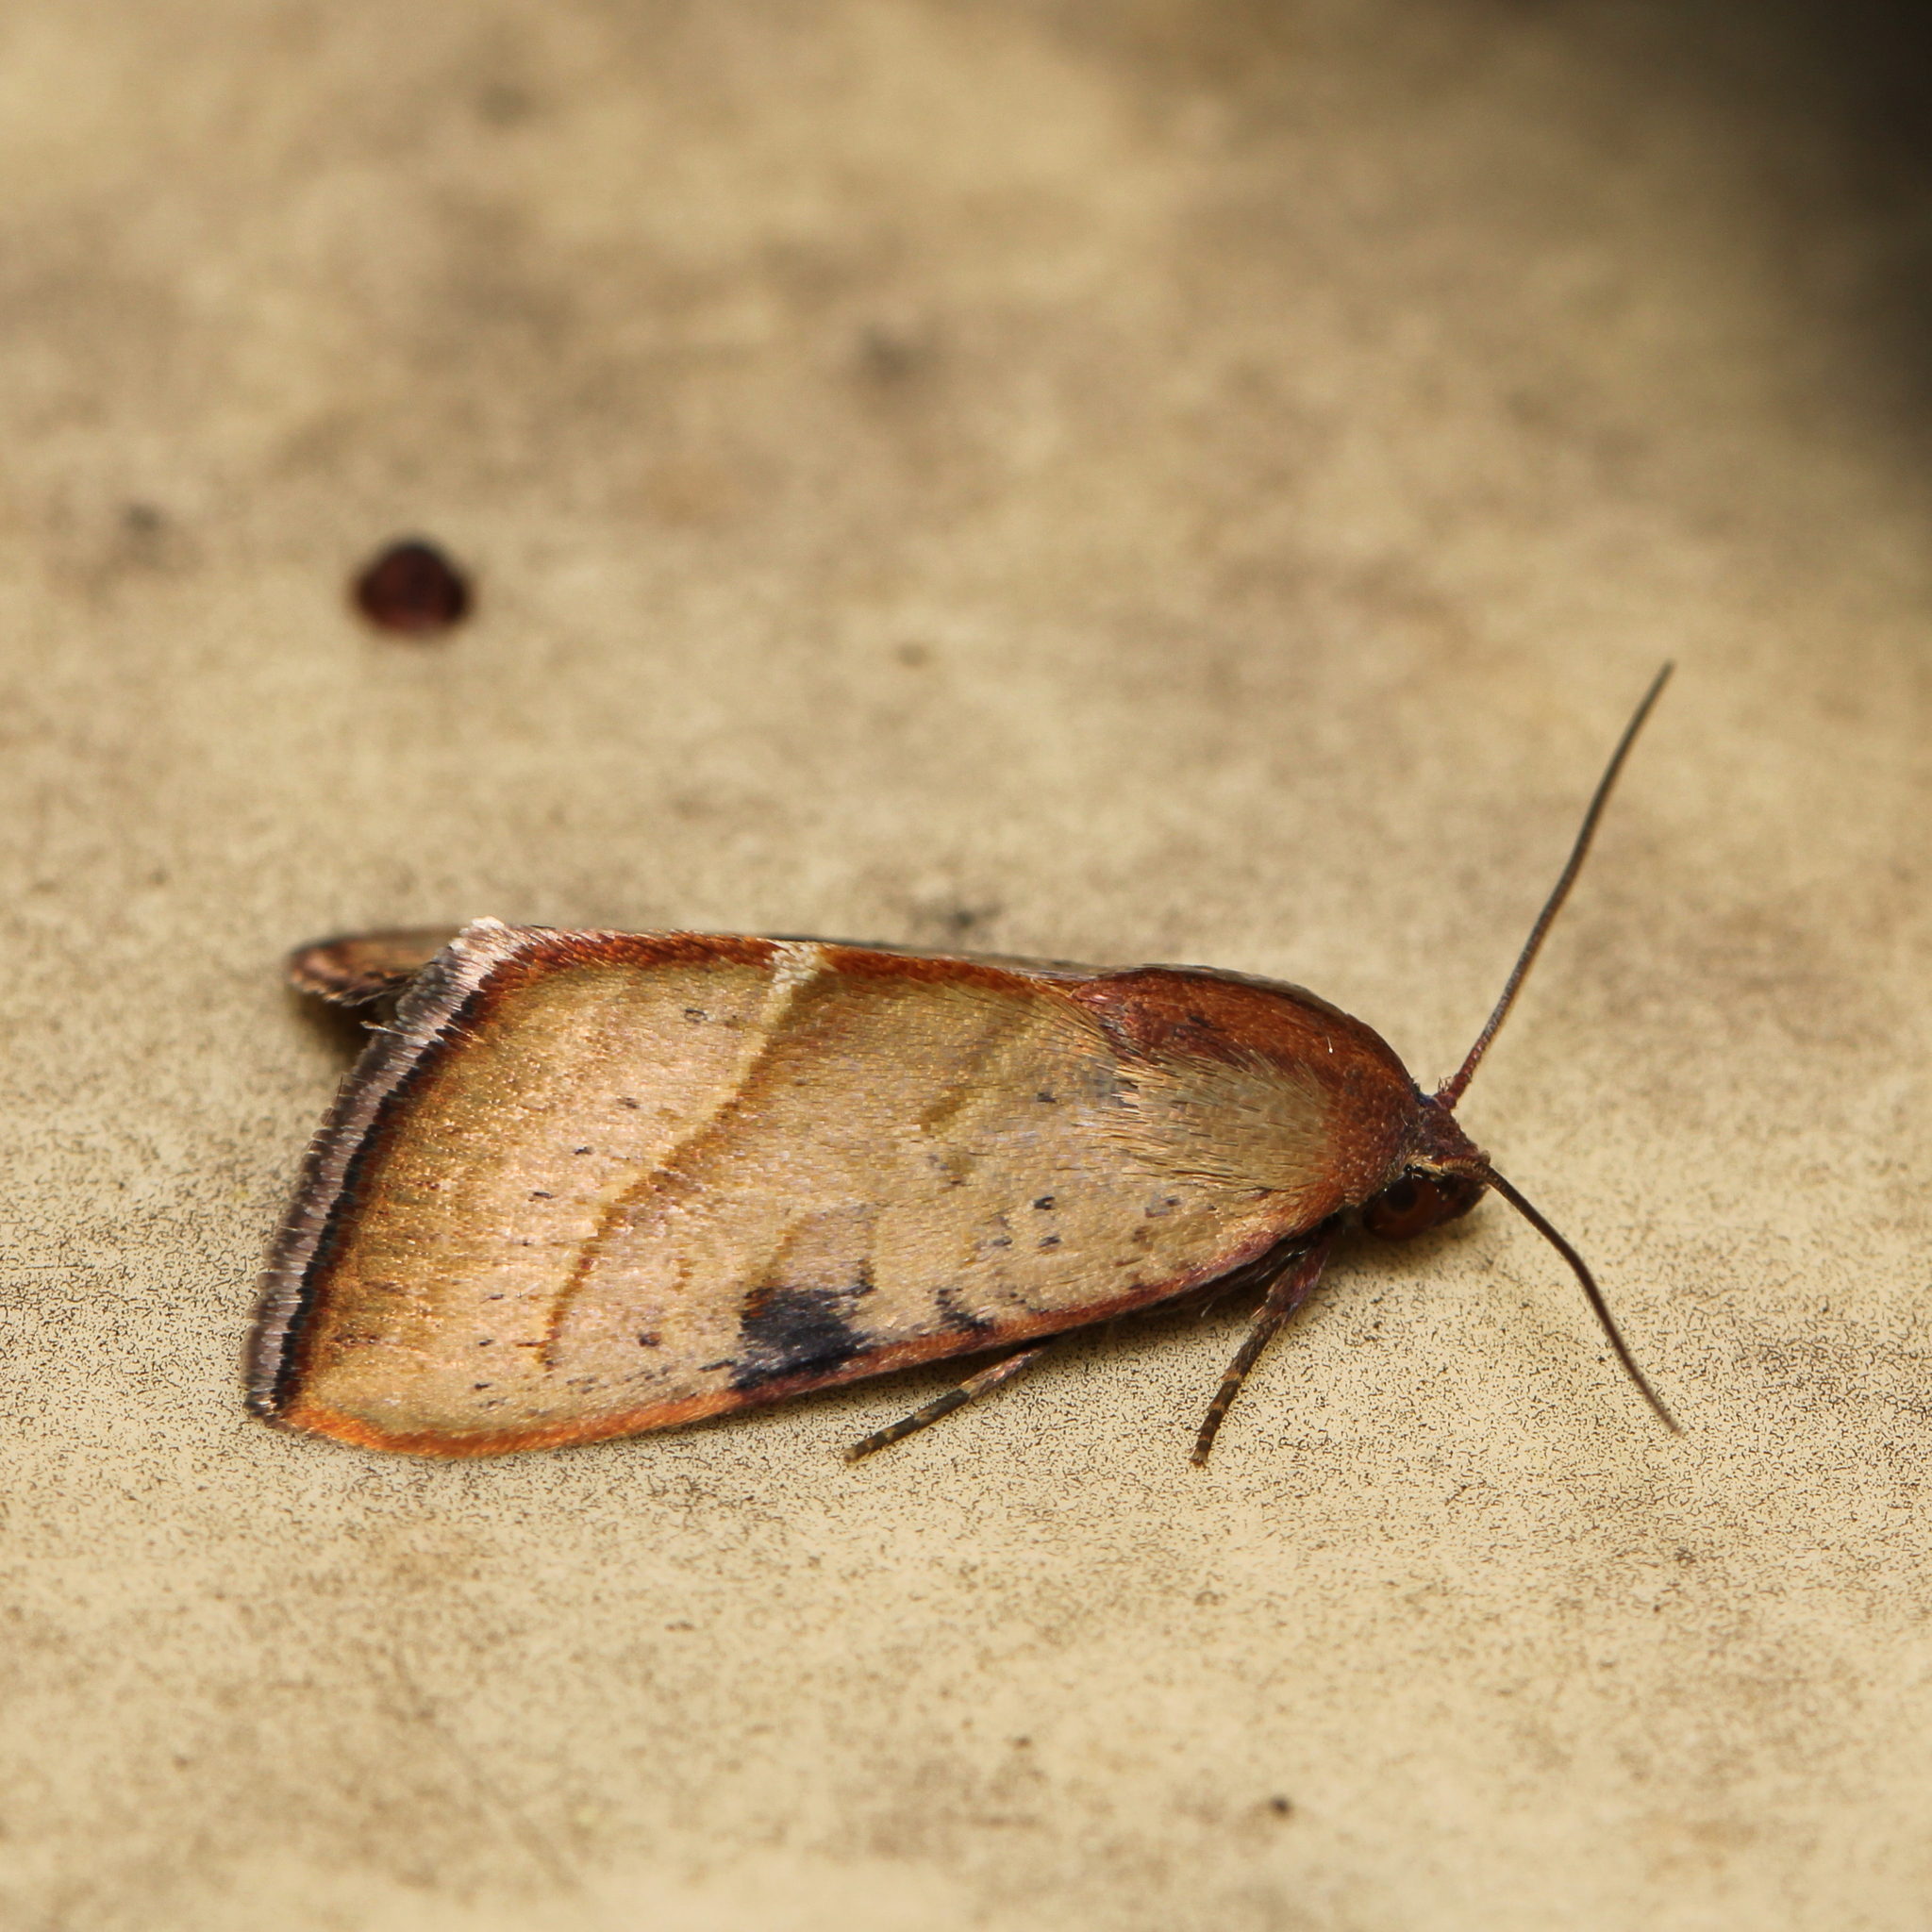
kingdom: Animalia
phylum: Arthropoda
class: Insecta
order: Lepidoptera
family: Noctuidae
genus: Galgula
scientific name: Galgula partita
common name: Wedgeling
